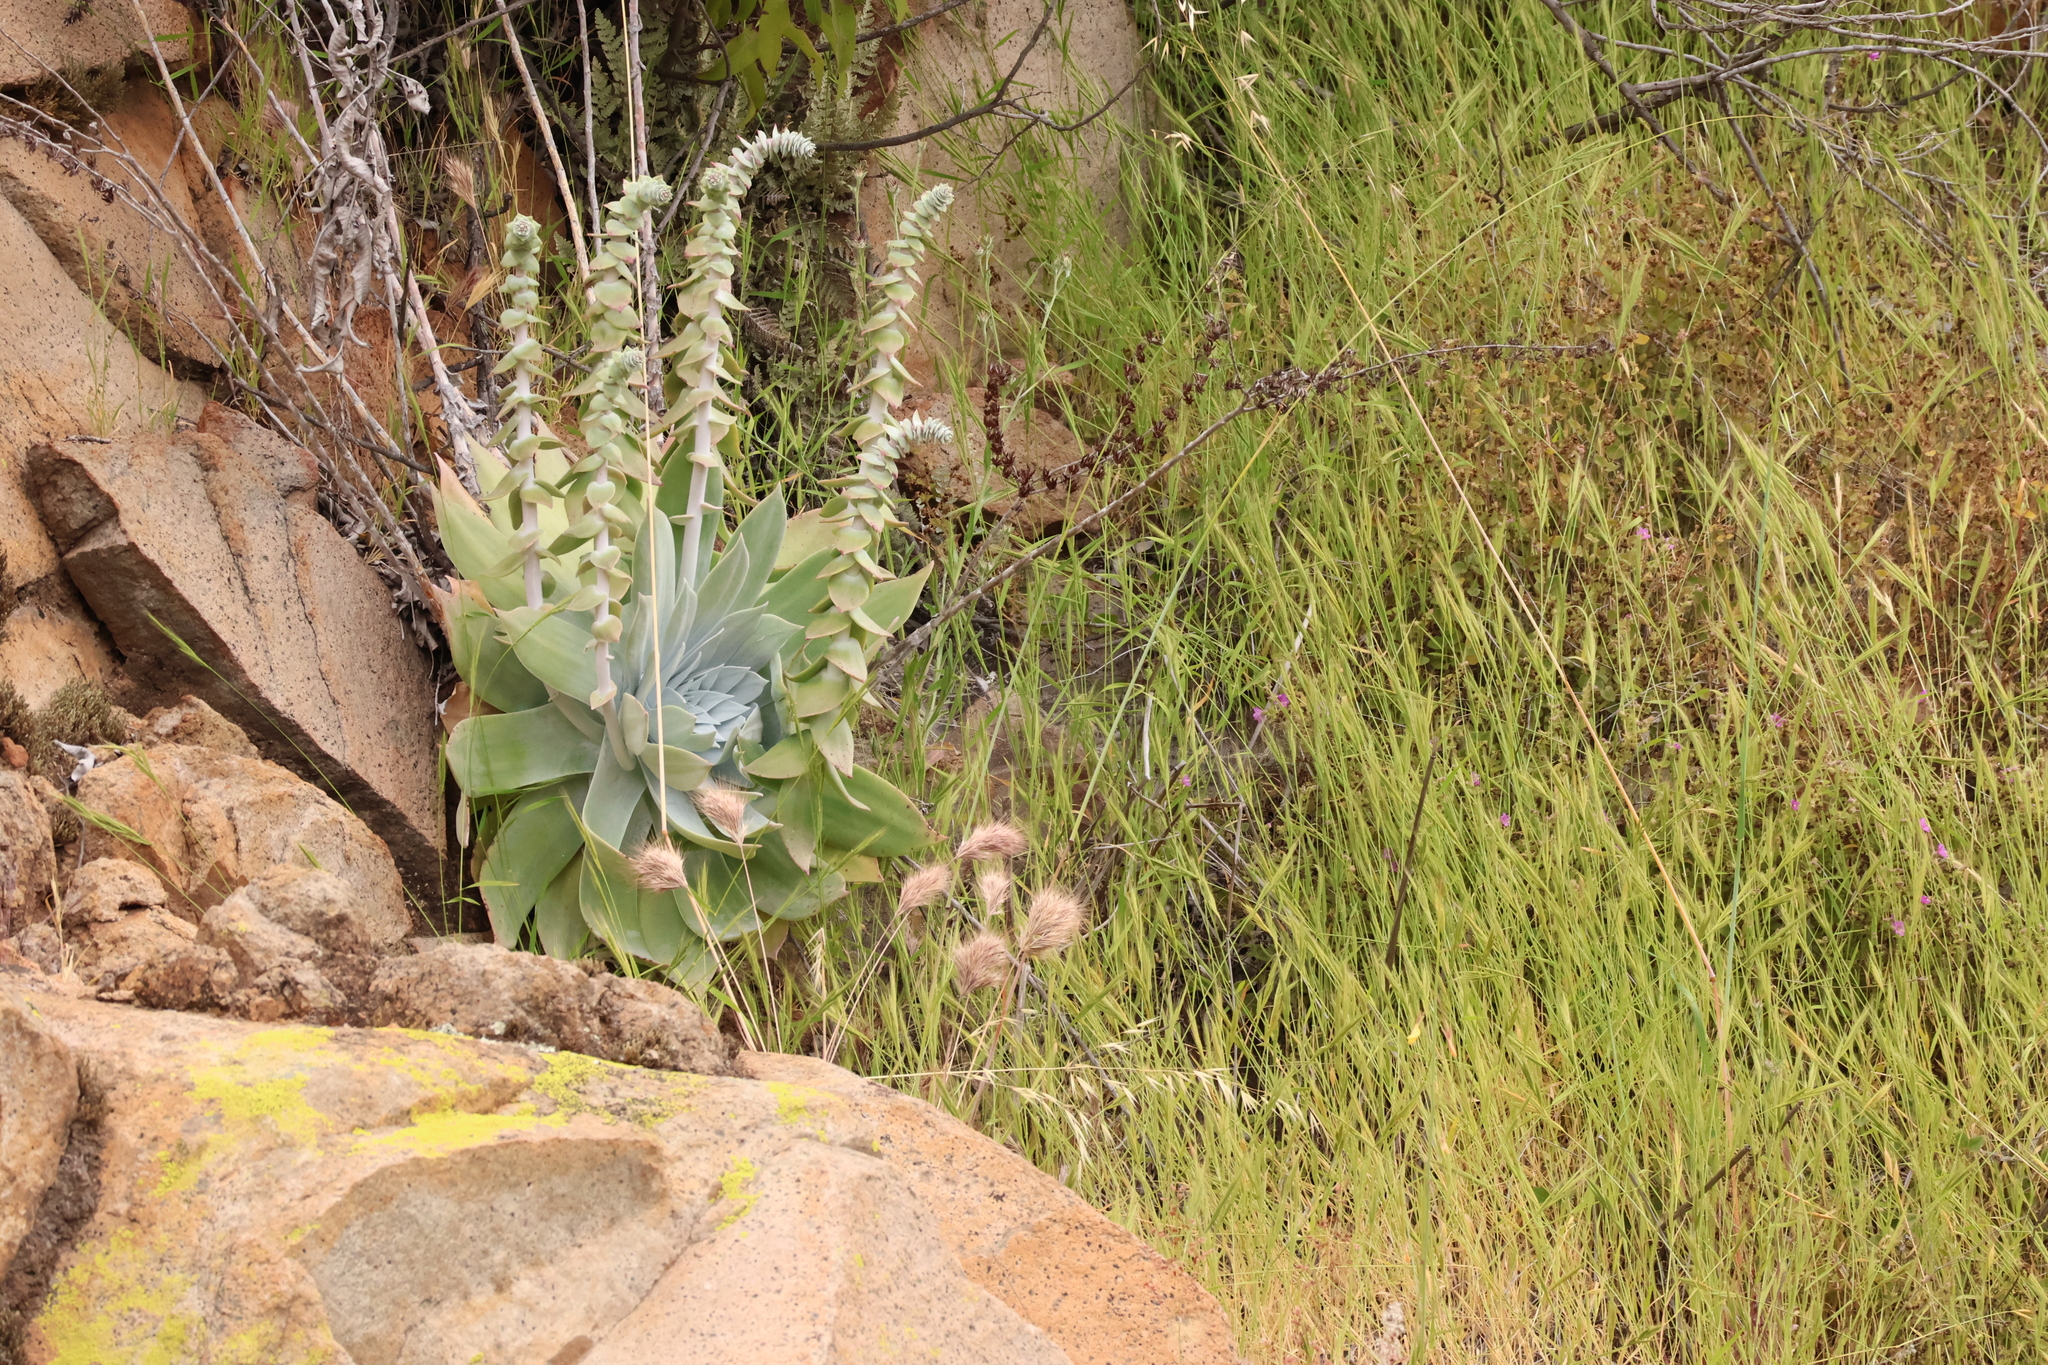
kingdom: Plantae
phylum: Tracheophyta
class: Magnoliopsida
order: Saxifragales
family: Crassulaceae
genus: Dudleya
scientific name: Dudleya pulverulenta
